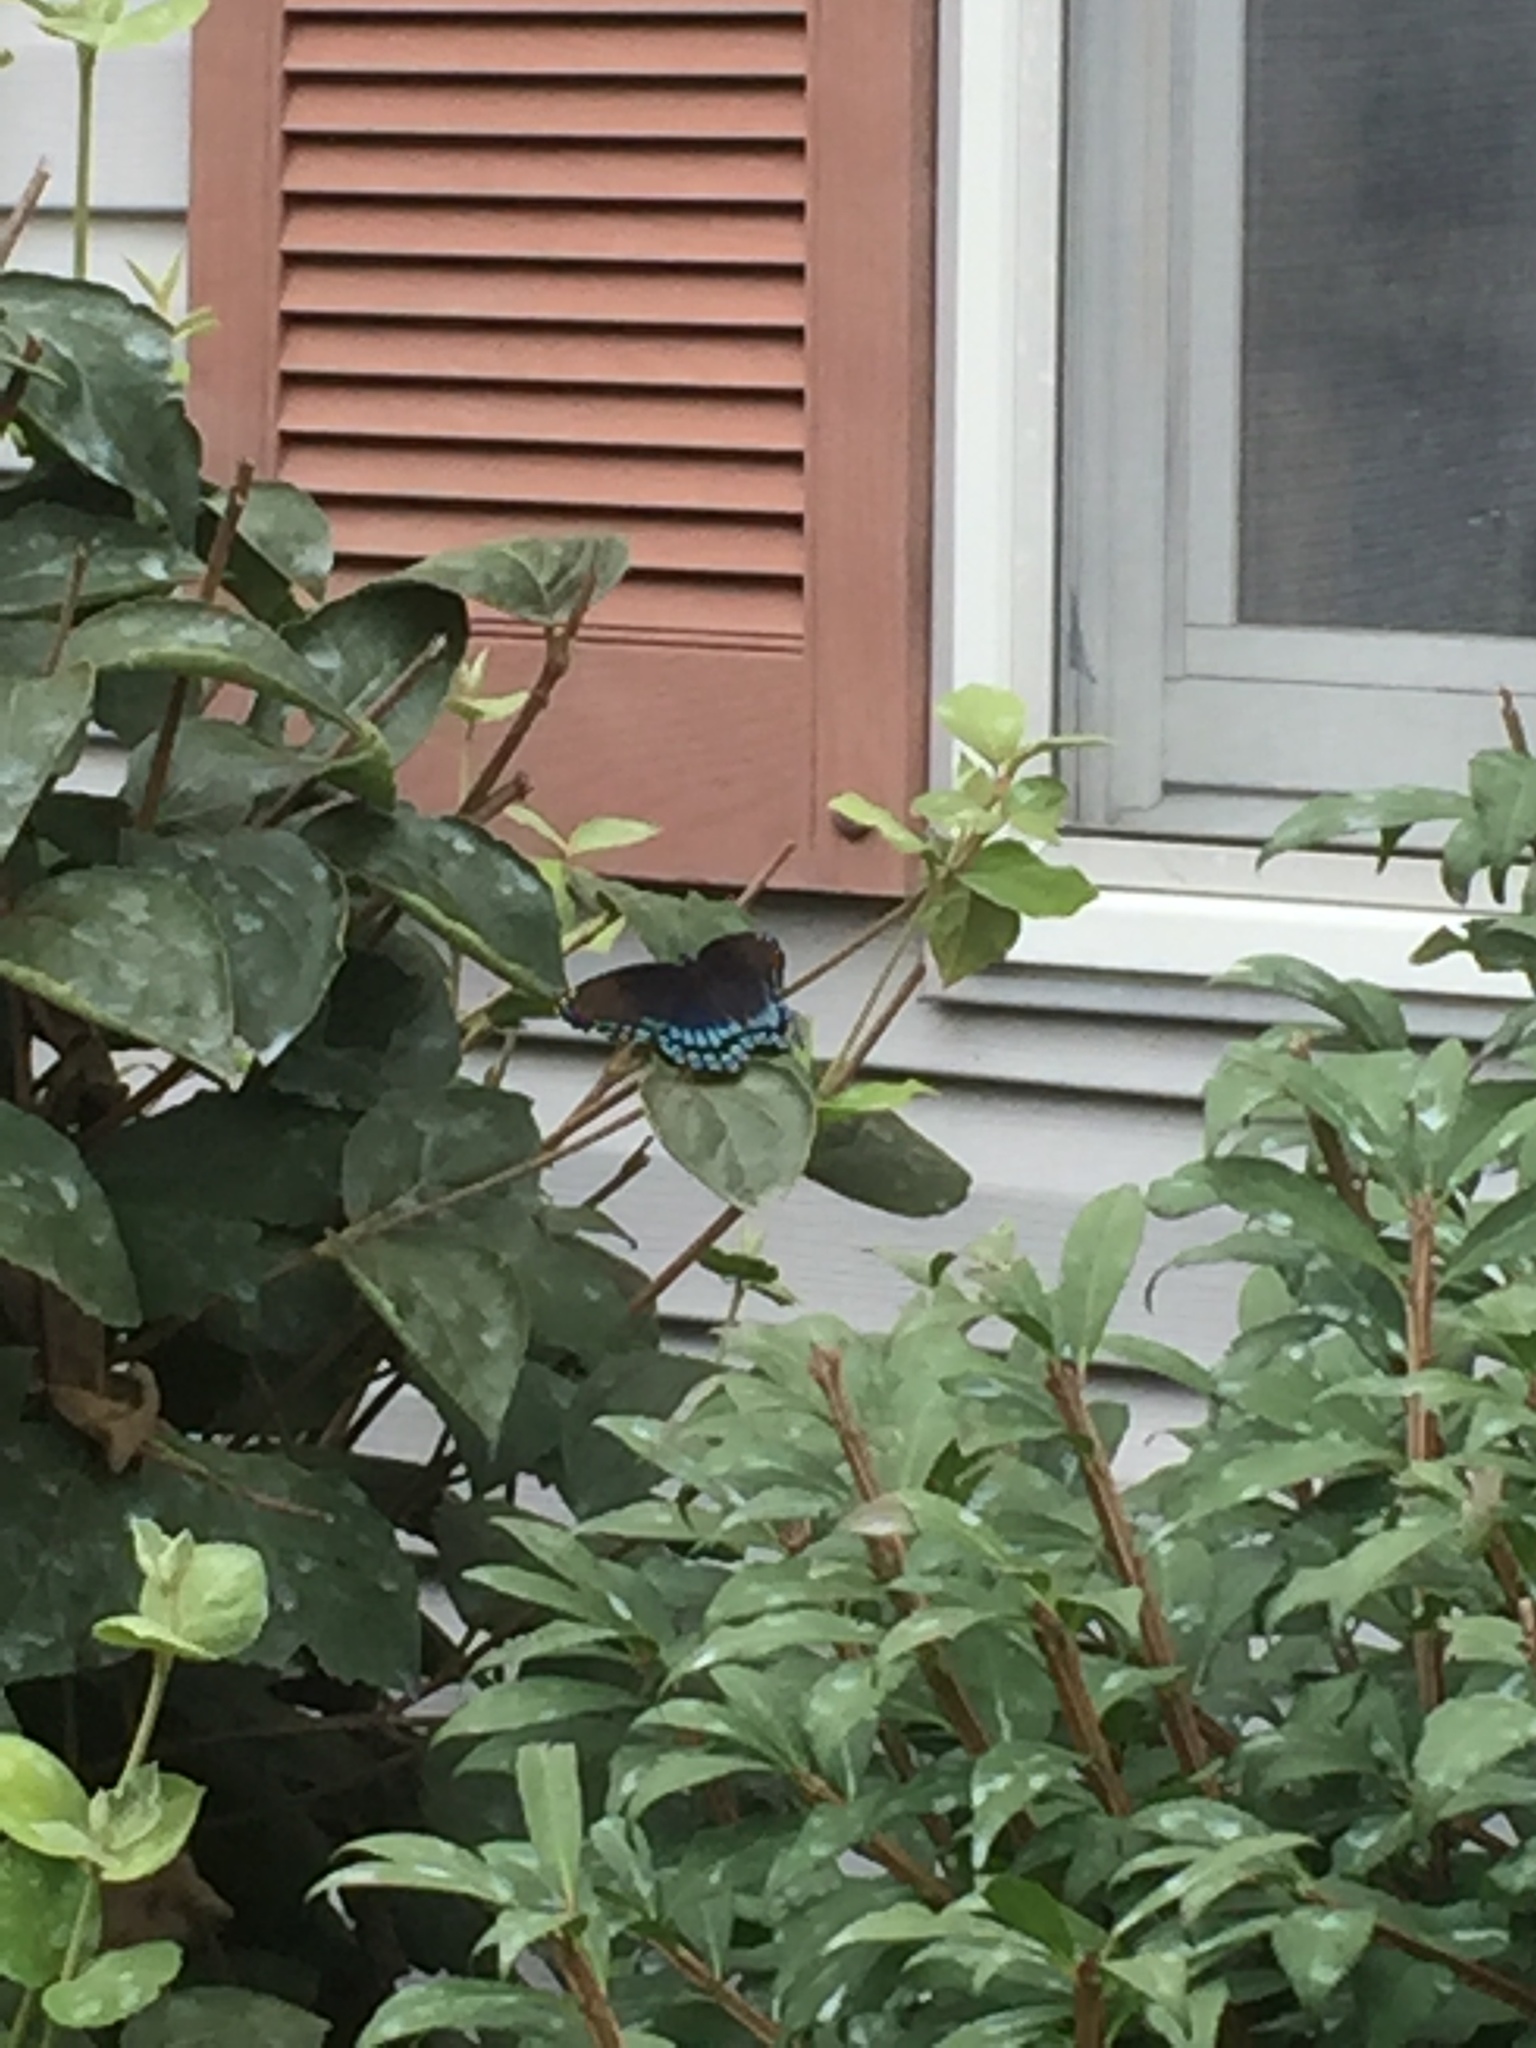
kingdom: Animalia
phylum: Arthropoda
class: Insecta
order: Lepidoptera
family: Nymphalidae
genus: Limenitis
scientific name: Limenitis astyanax
